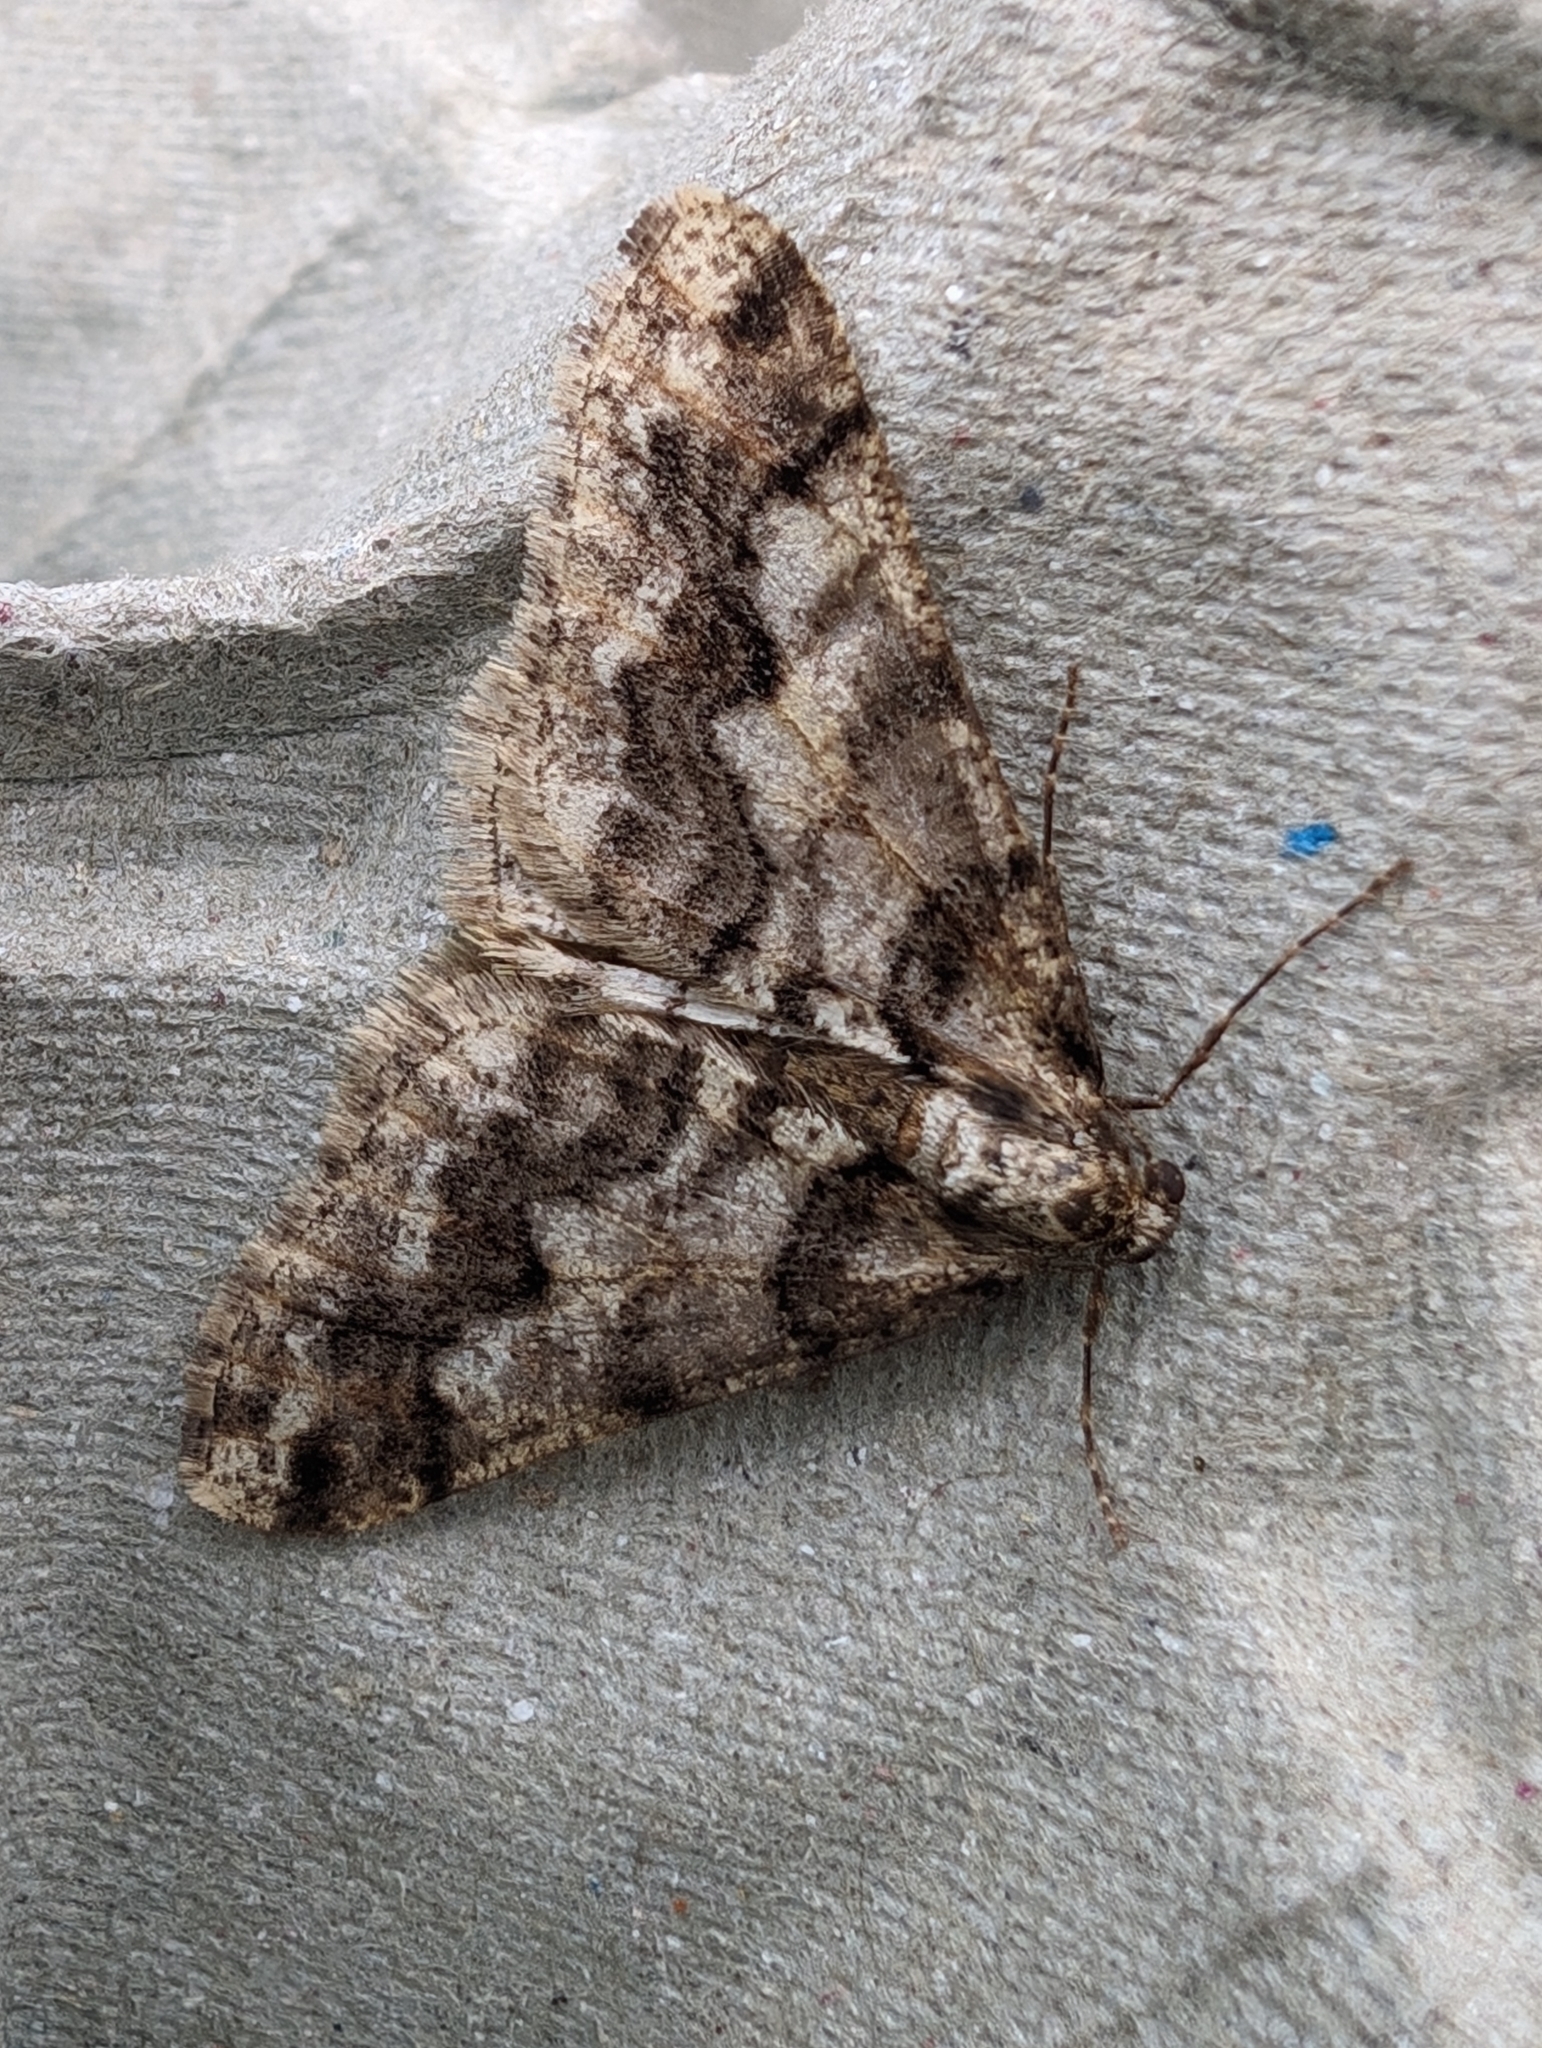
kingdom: Animalia
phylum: Arthropoda
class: Insecta
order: Lepidoptera
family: Geometridae
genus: Agriopis
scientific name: Agriopis leucophaearia
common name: Spring usher
